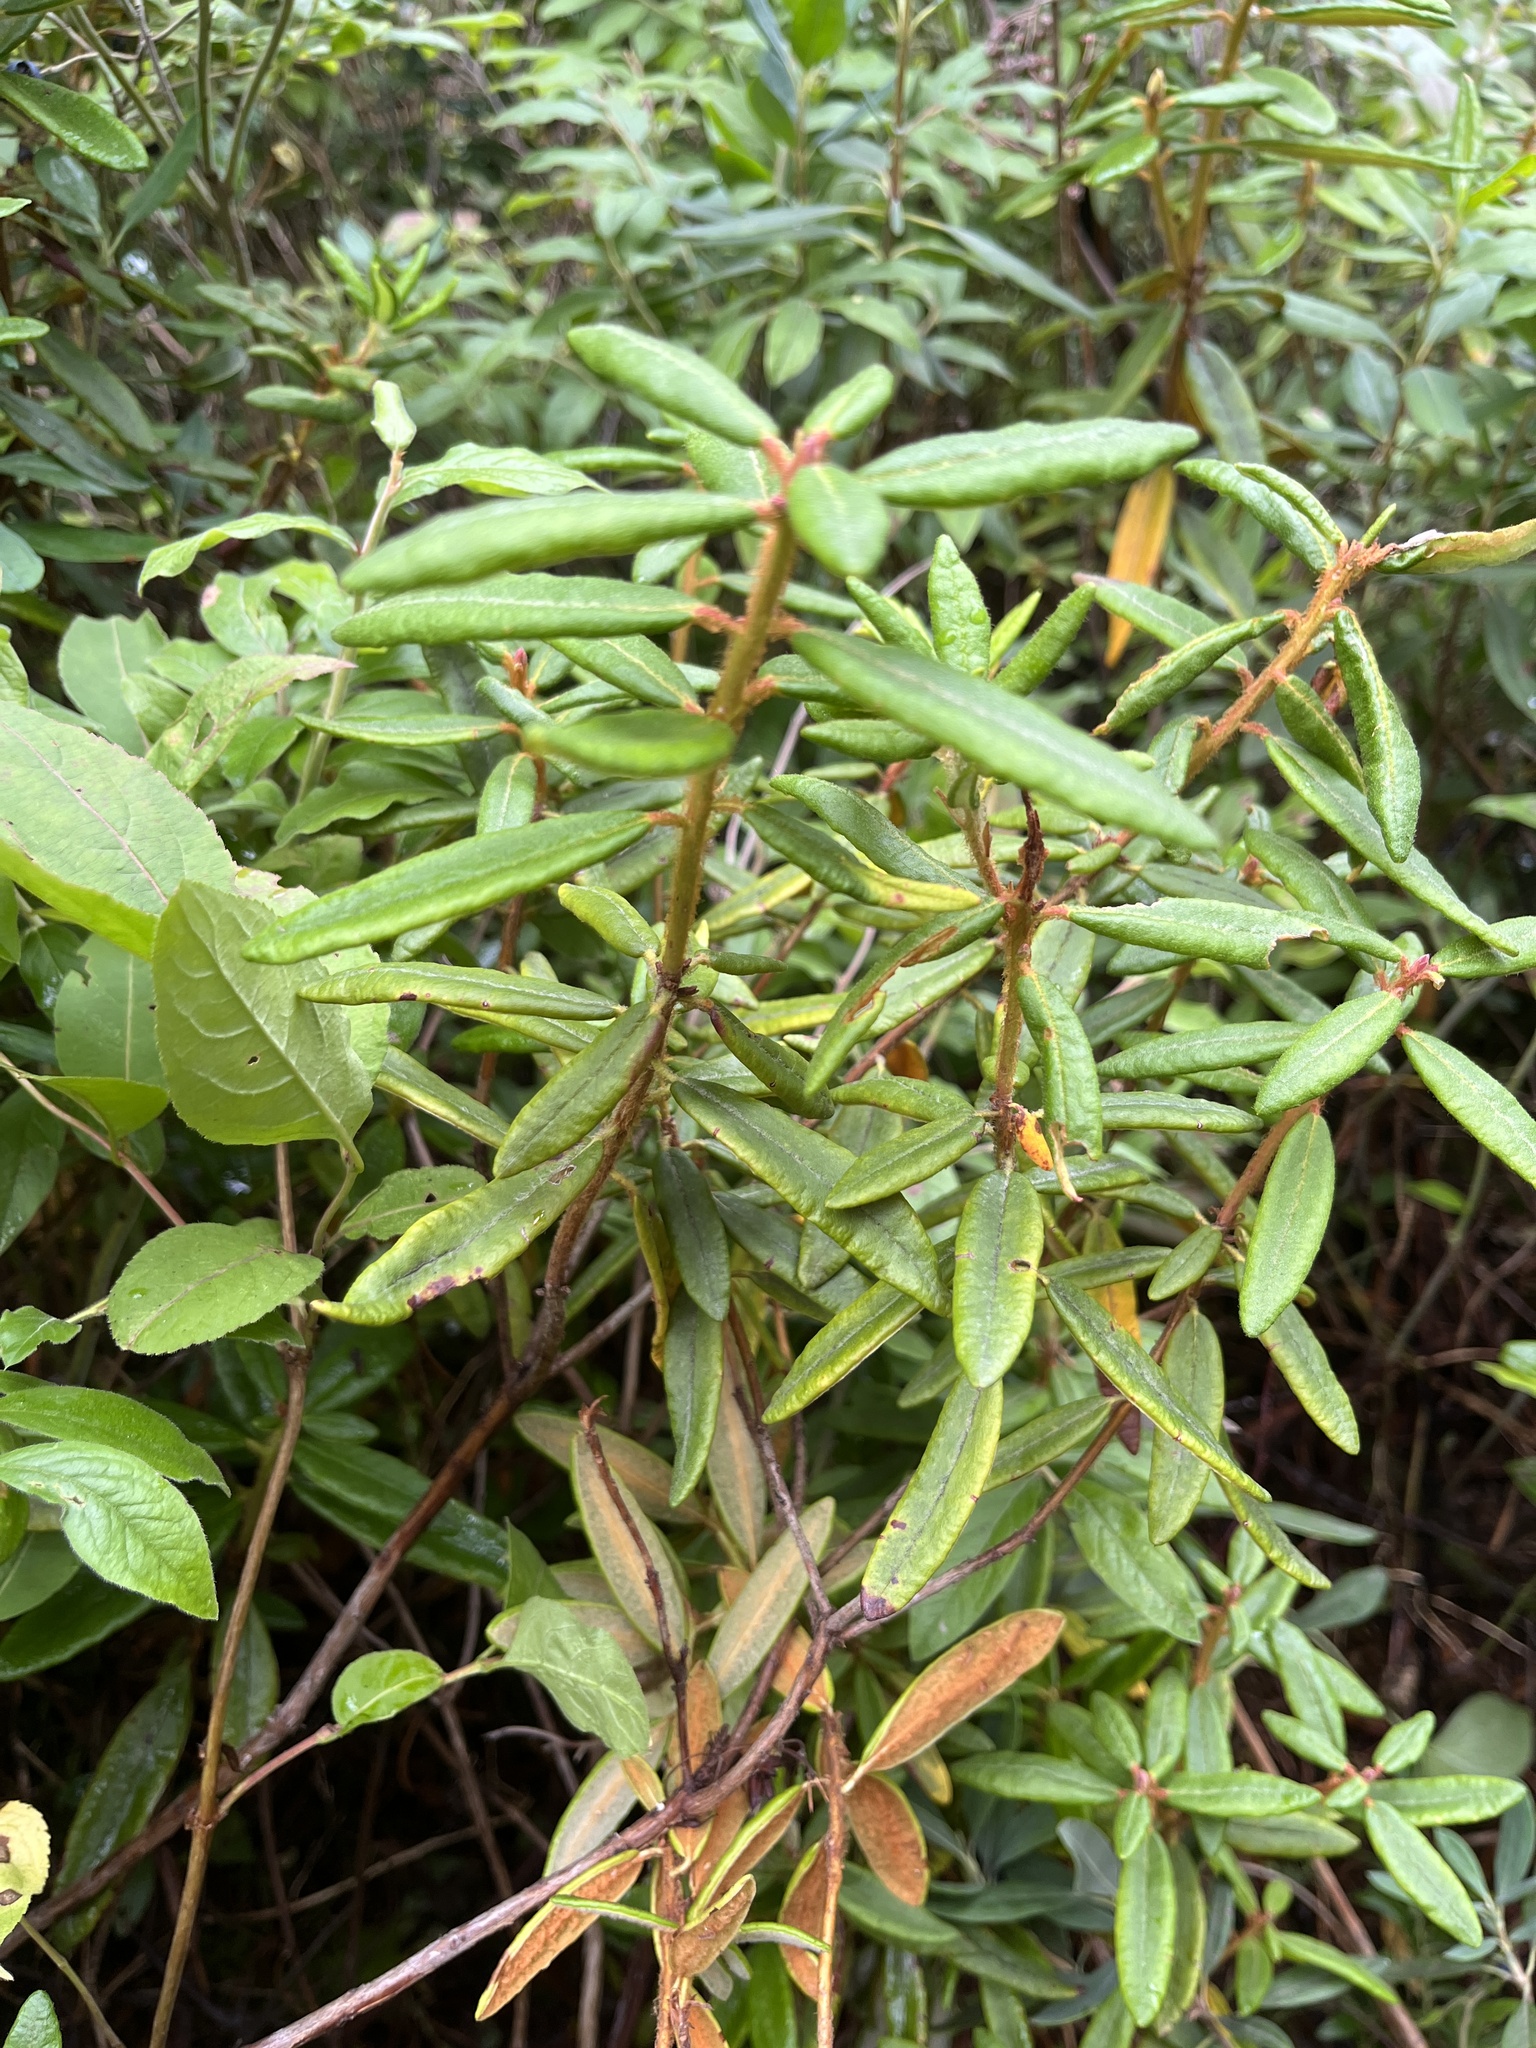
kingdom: Plantae
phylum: Tracheophyta
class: Magnoliopsida
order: Ericales
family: Ericaceae
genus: Rhododendron
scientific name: Rhododendron groenlandicum
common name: Bog labrador tea
